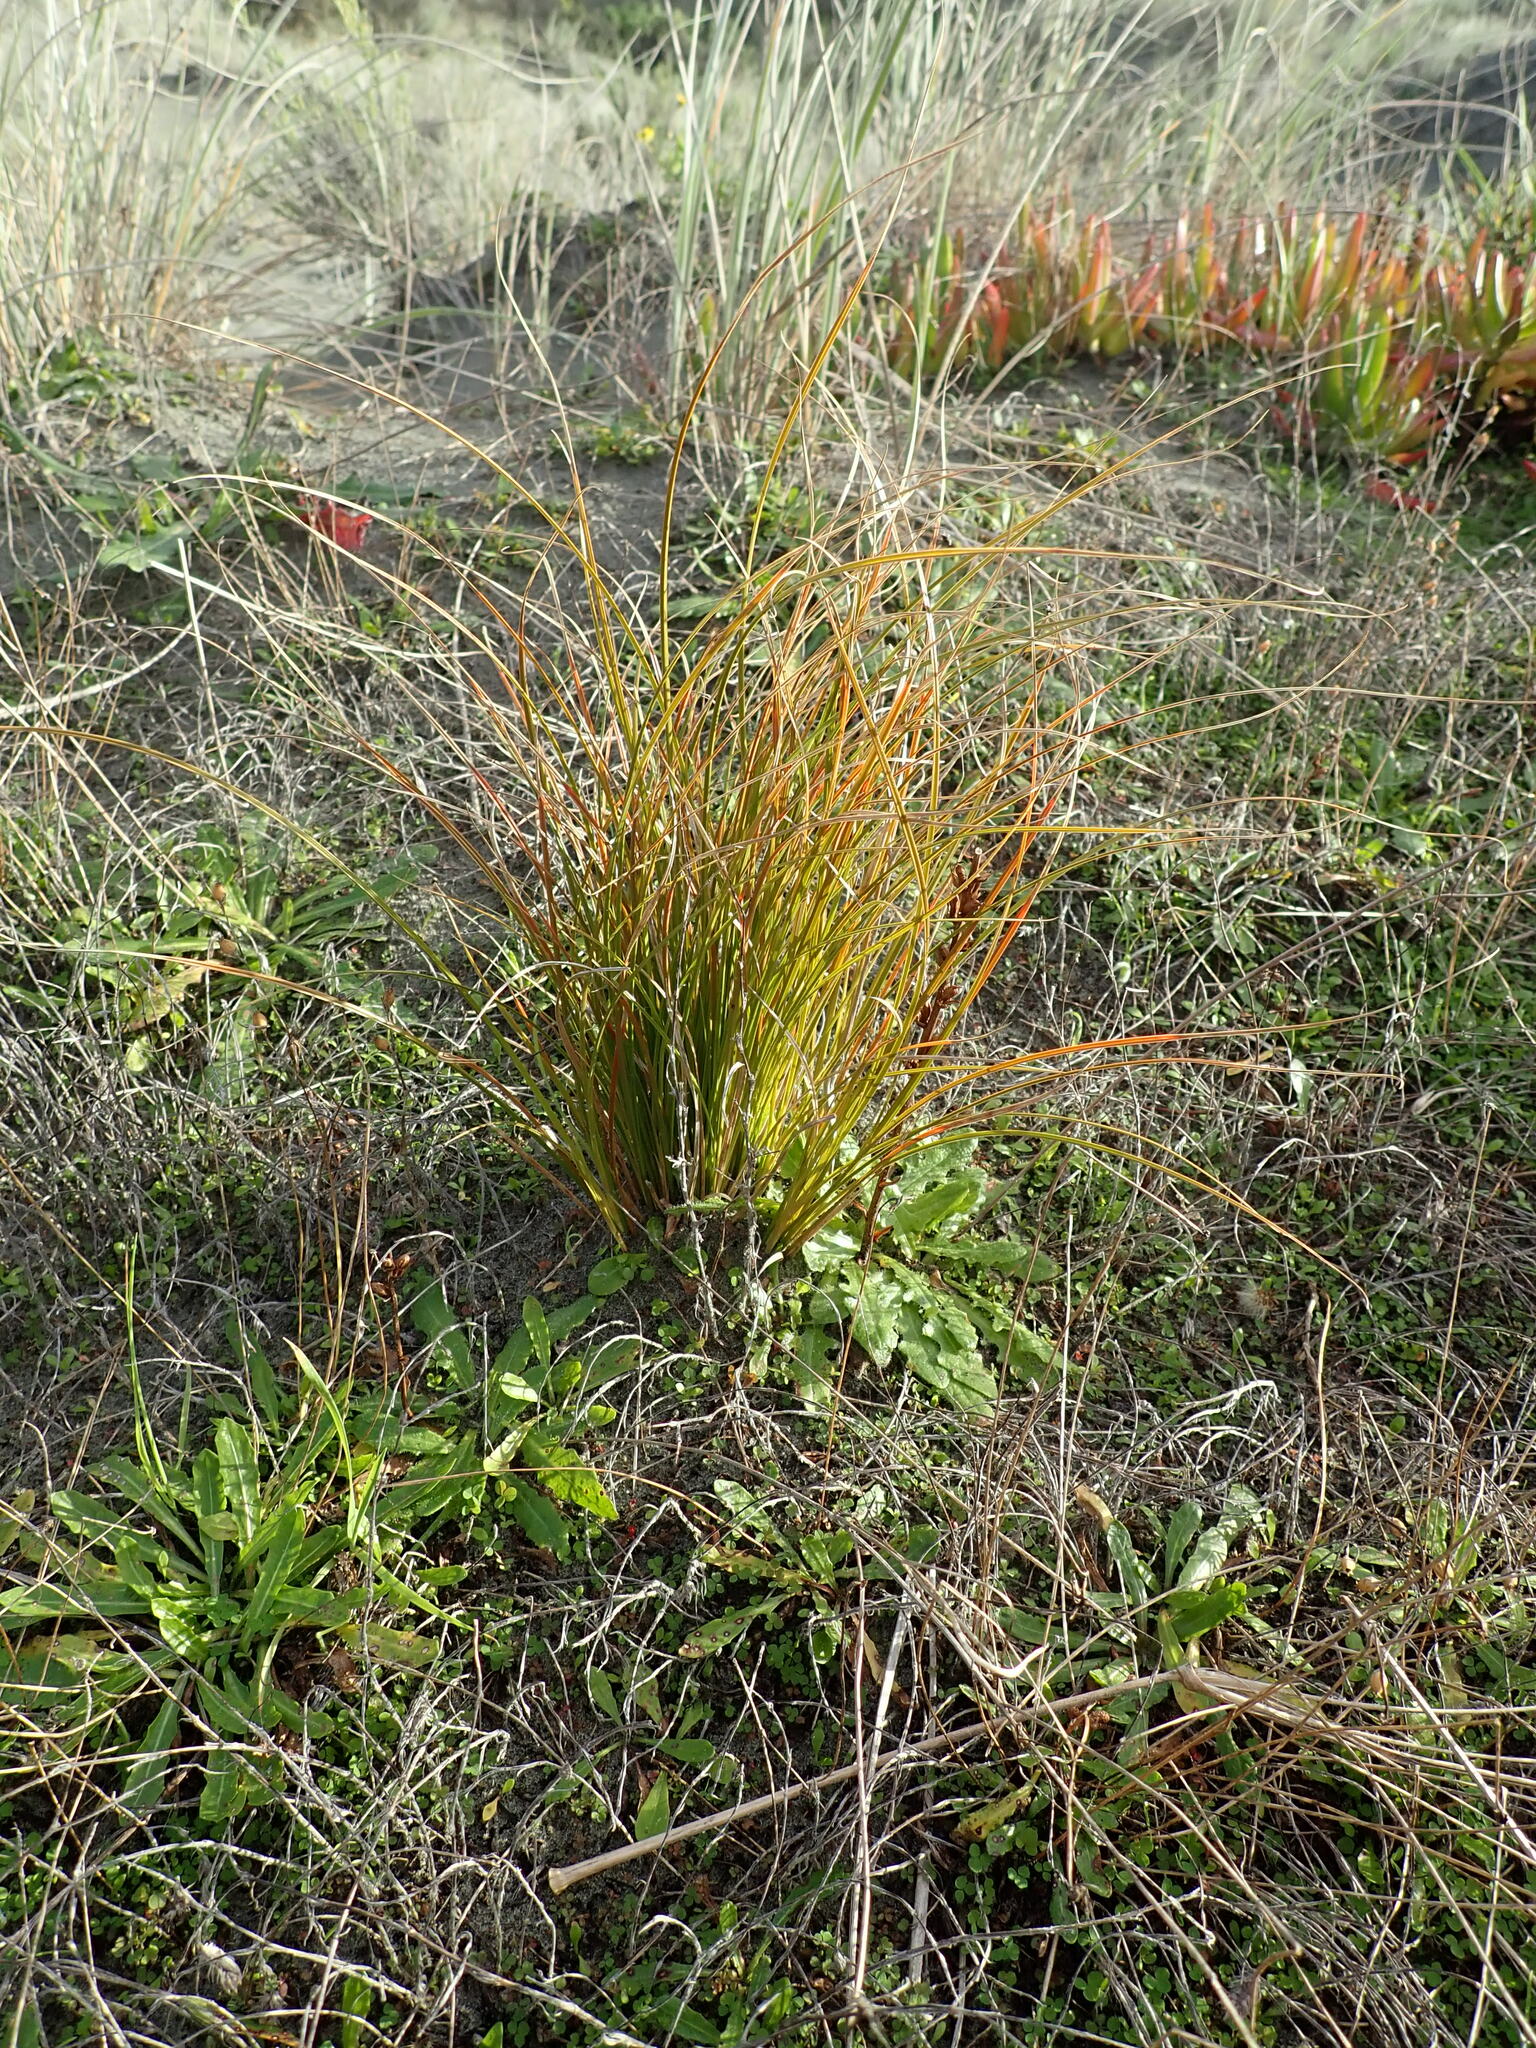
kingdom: Plantae
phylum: Tracheophyta
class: Magnoliopsida
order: Lamiales
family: Orobanchaceae
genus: Orobanche
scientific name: Orobanche minor
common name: Common broomrape
